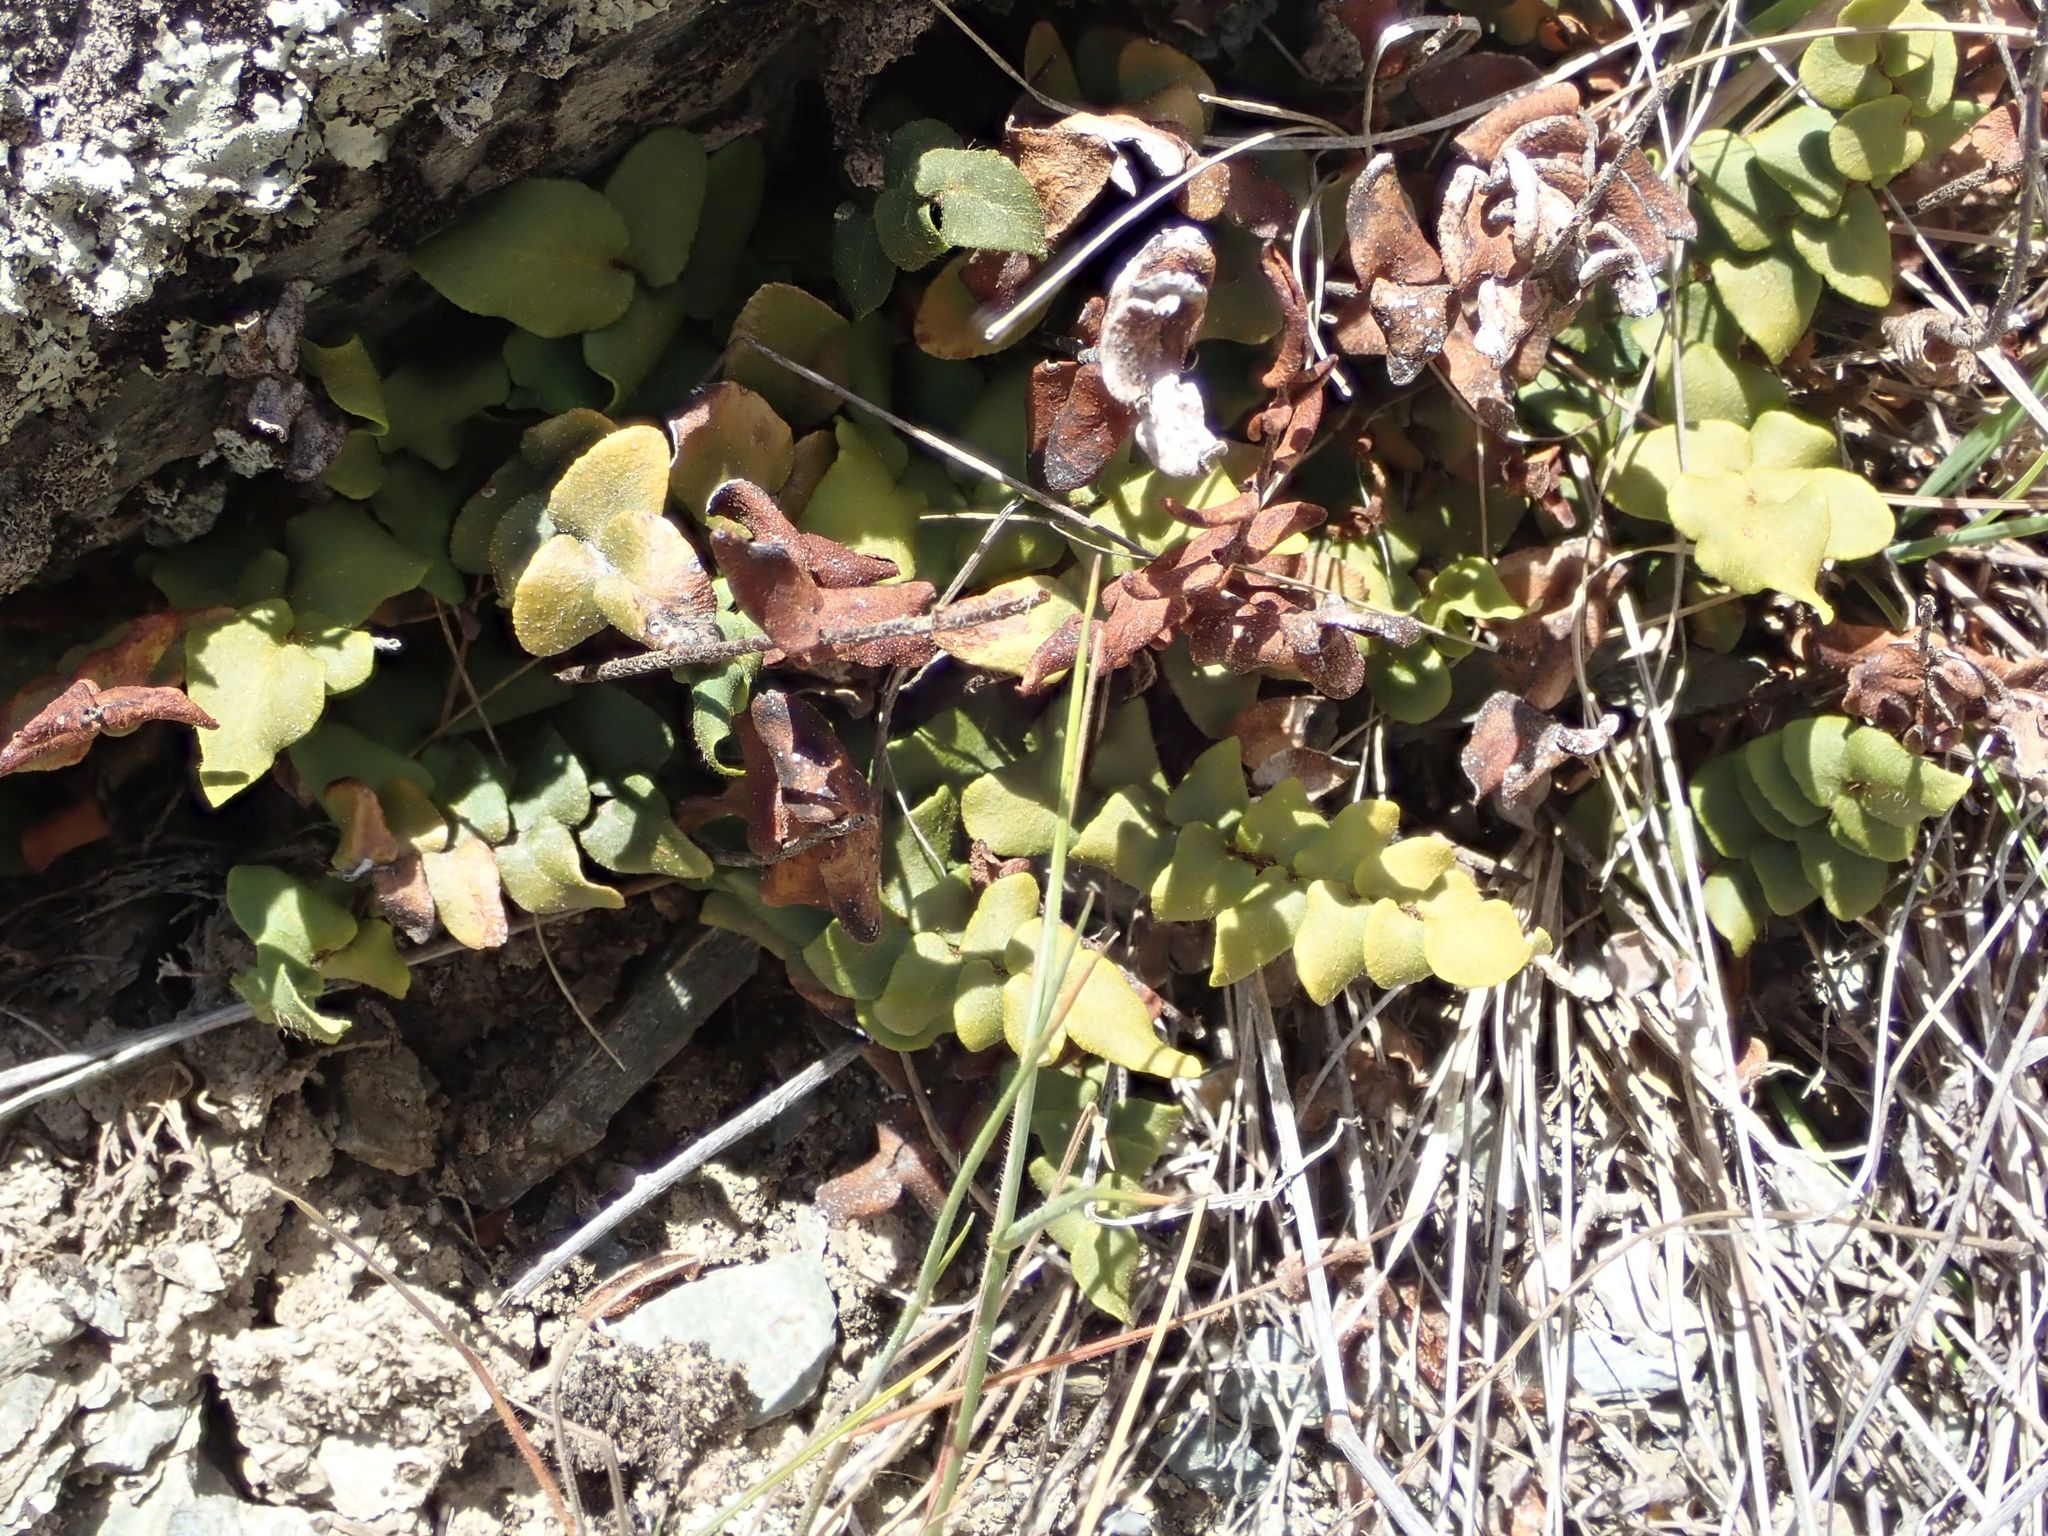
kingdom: Plantae
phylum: Tracheophyta
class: Polypodiopsida
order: Polypodiales
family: Pteridaceae
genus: Pellaea
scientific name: Pellaea calidirupium
